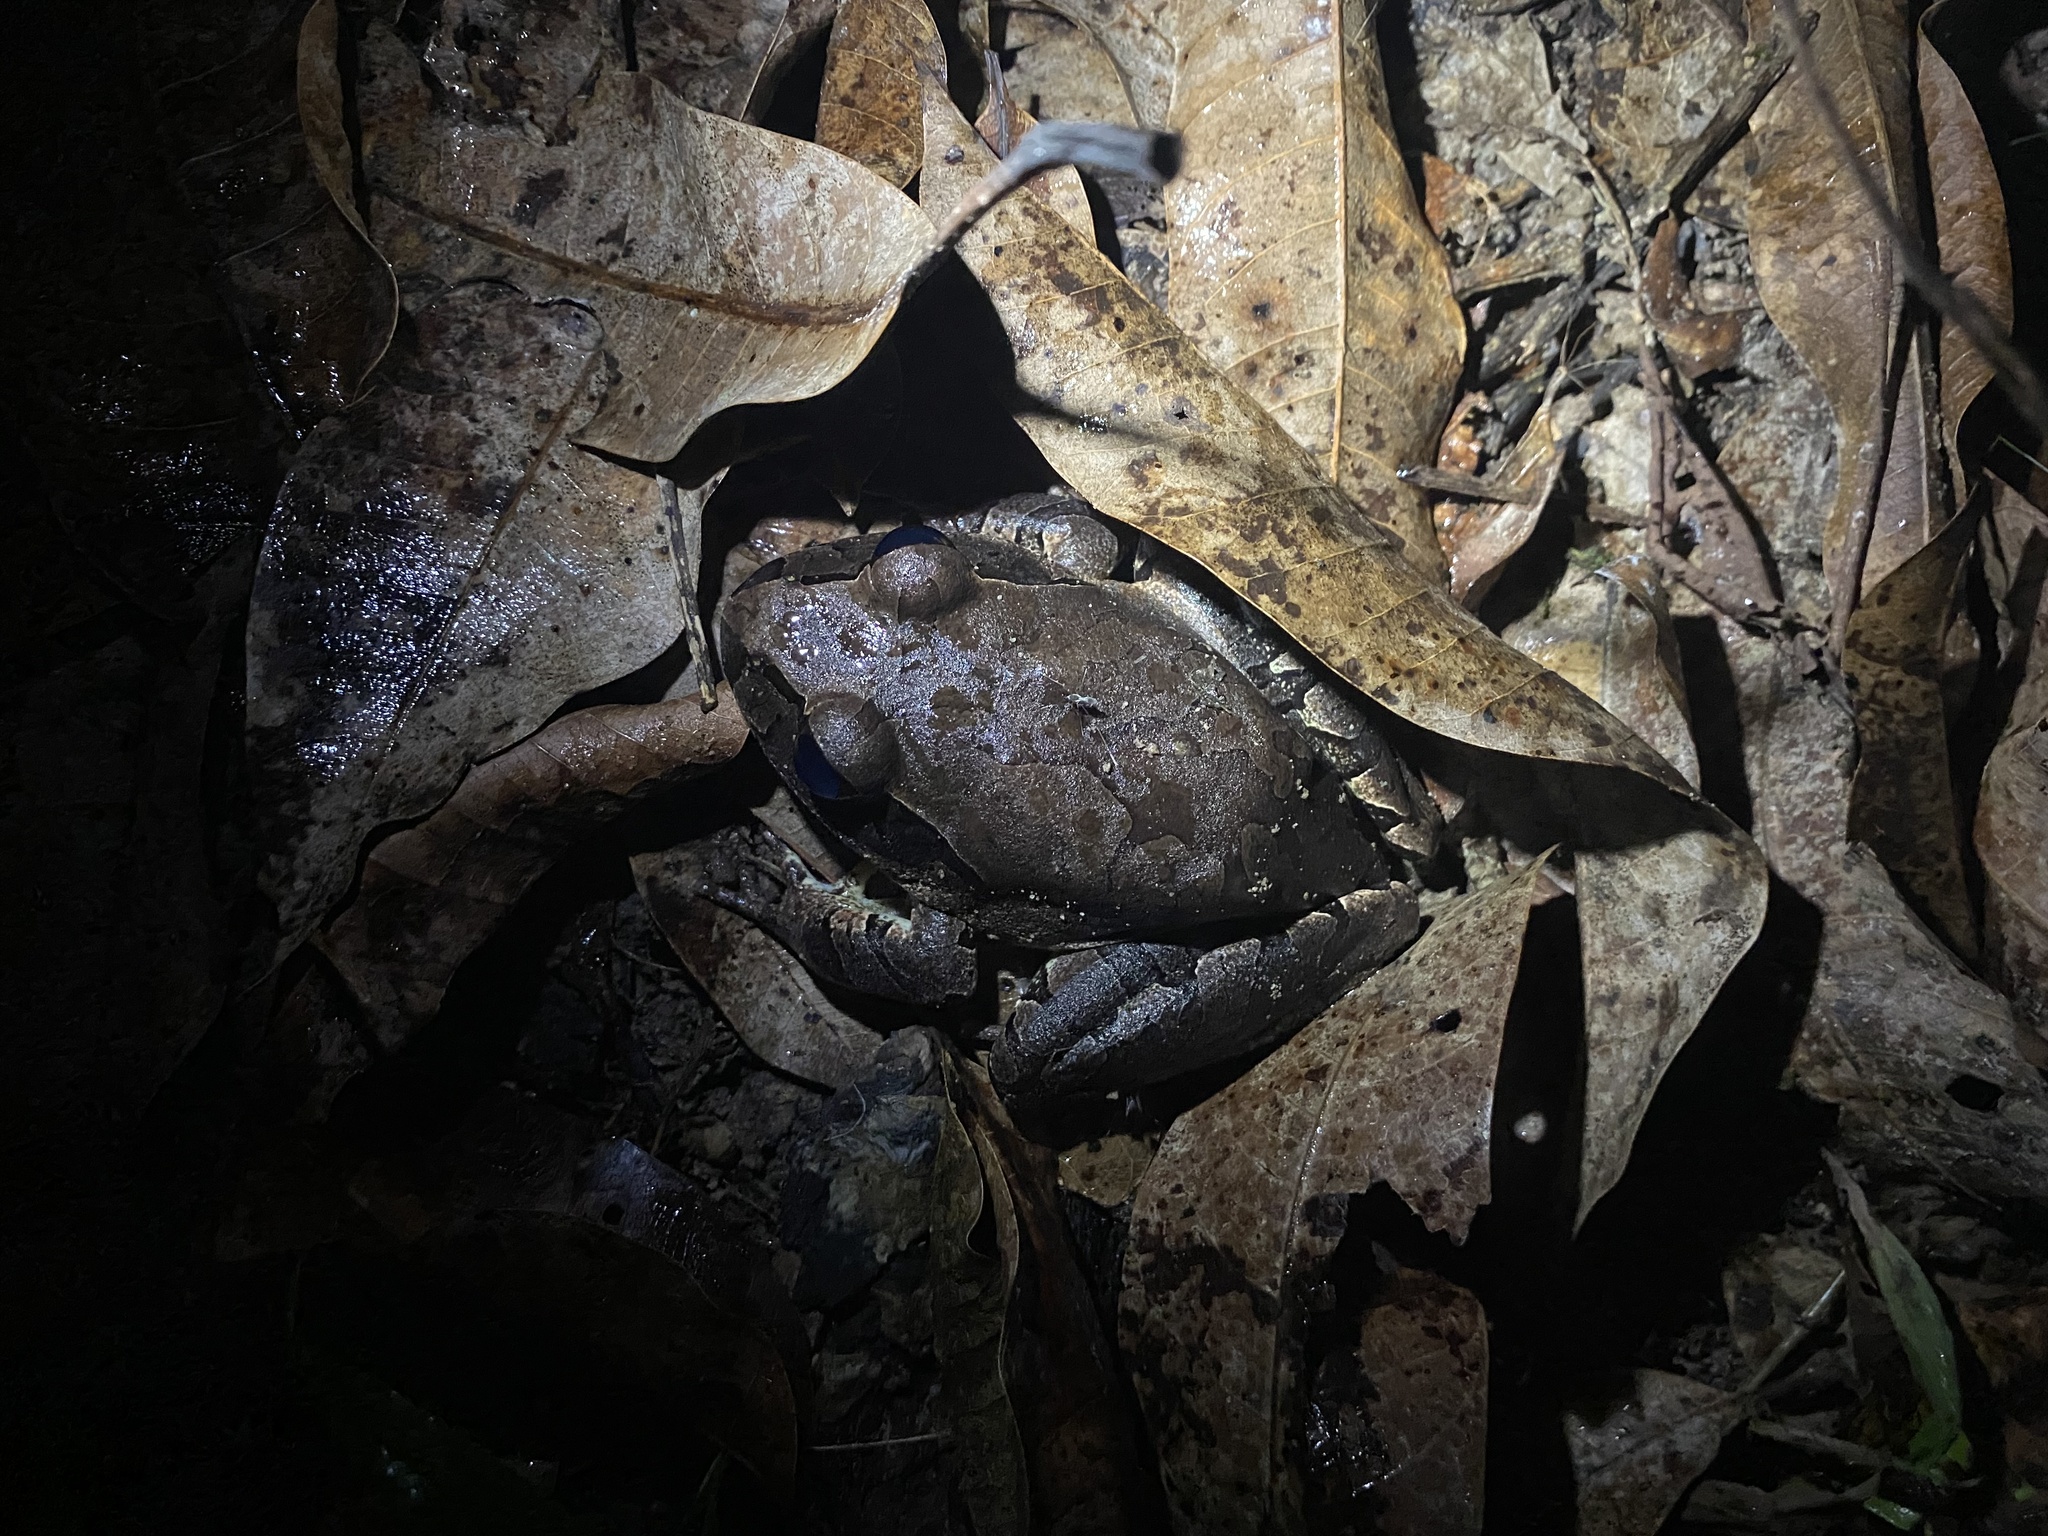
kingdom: Animalia
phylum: Chordata
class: Amphibia
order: Anura
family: Myobatrachidae
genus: Mixophyes
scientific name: Mixophyes coggeri
